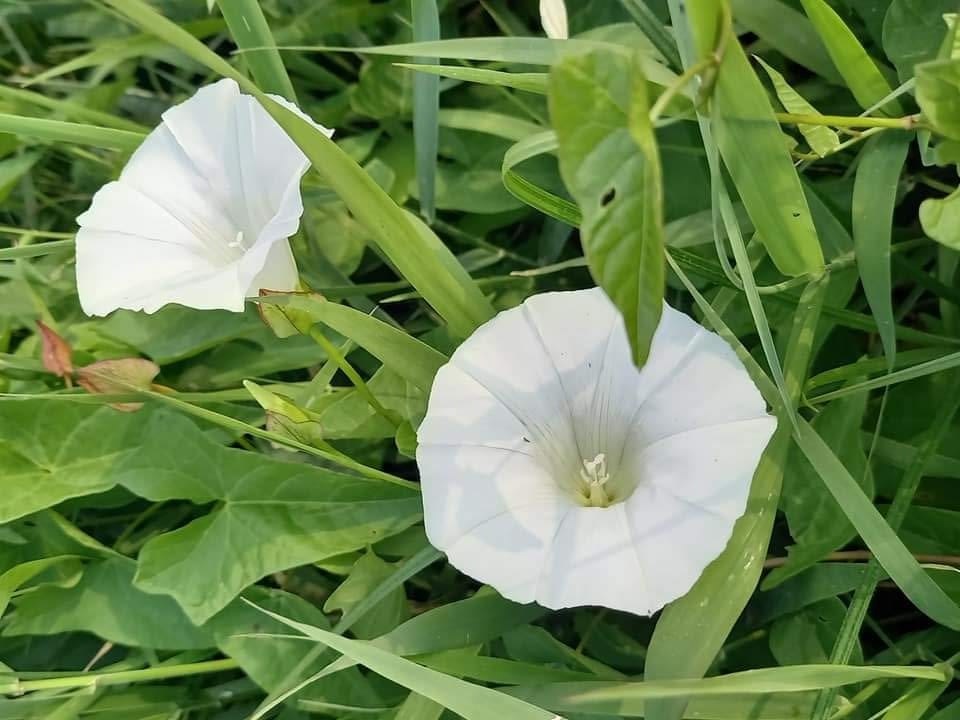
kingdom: Plantae
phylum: Tracheophyta
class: Magnoliopsida
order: Solanales
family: Convolvulaceae
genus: Calystegia
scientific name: Calystegia sepium
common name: Hedge bindweed
